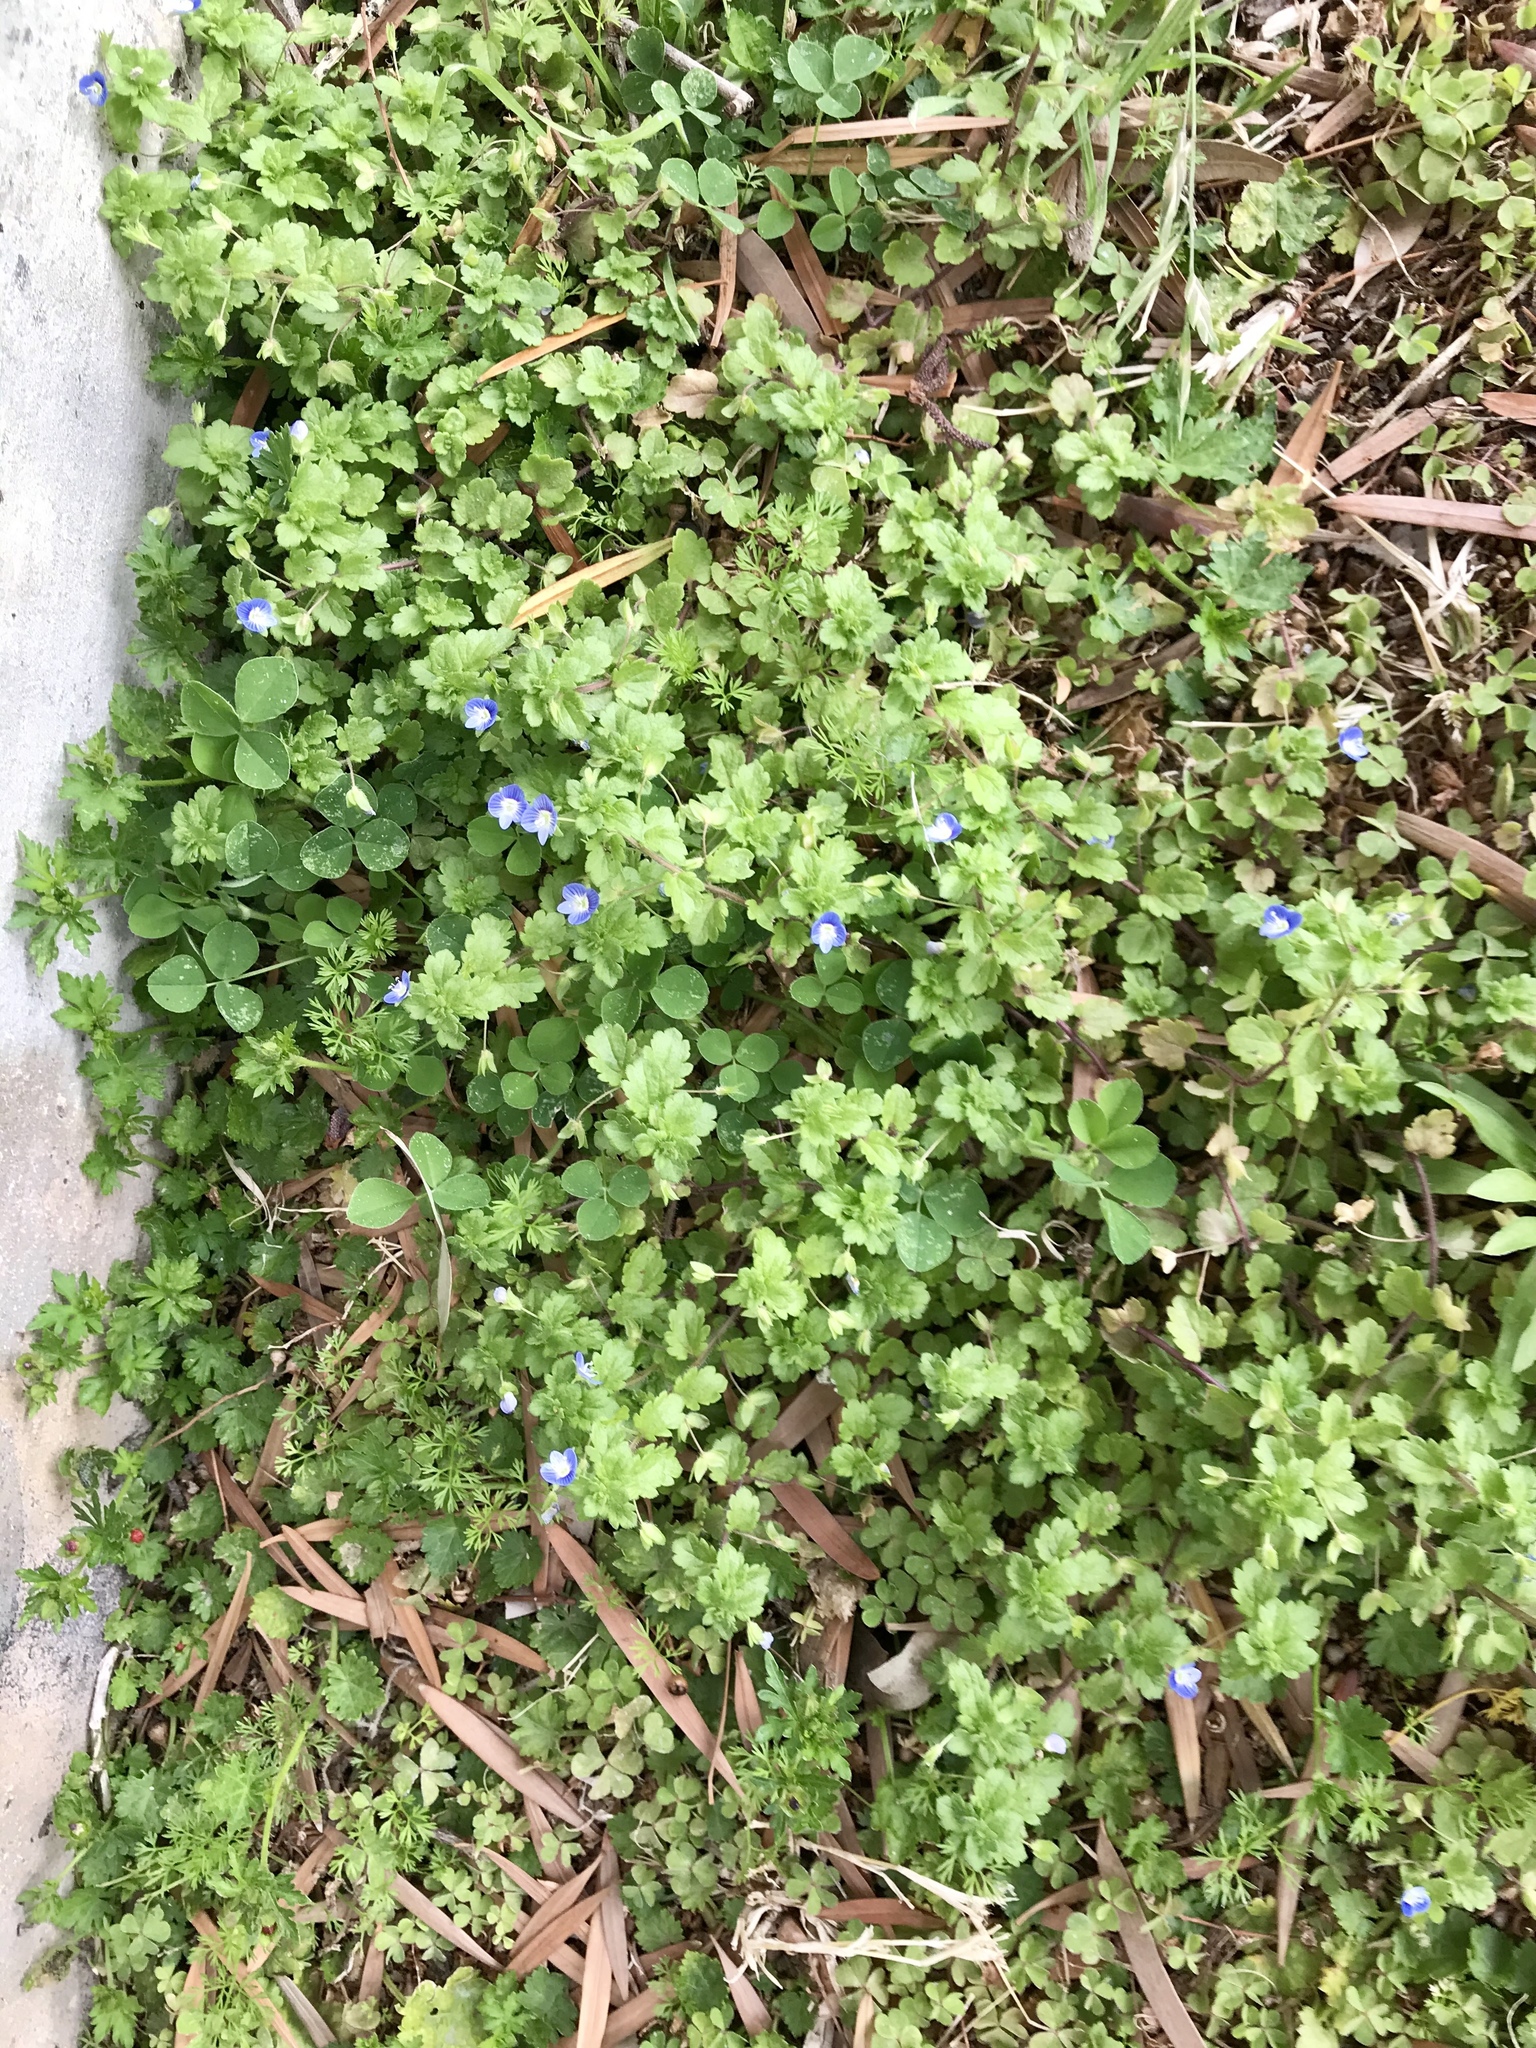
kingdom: Plantae
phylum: Tracheophyta
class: Magnoliopsida
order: Lamiales
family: Plantaginaceae
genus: Veronica
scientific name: Veronica persica
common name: Common field-speedwell
